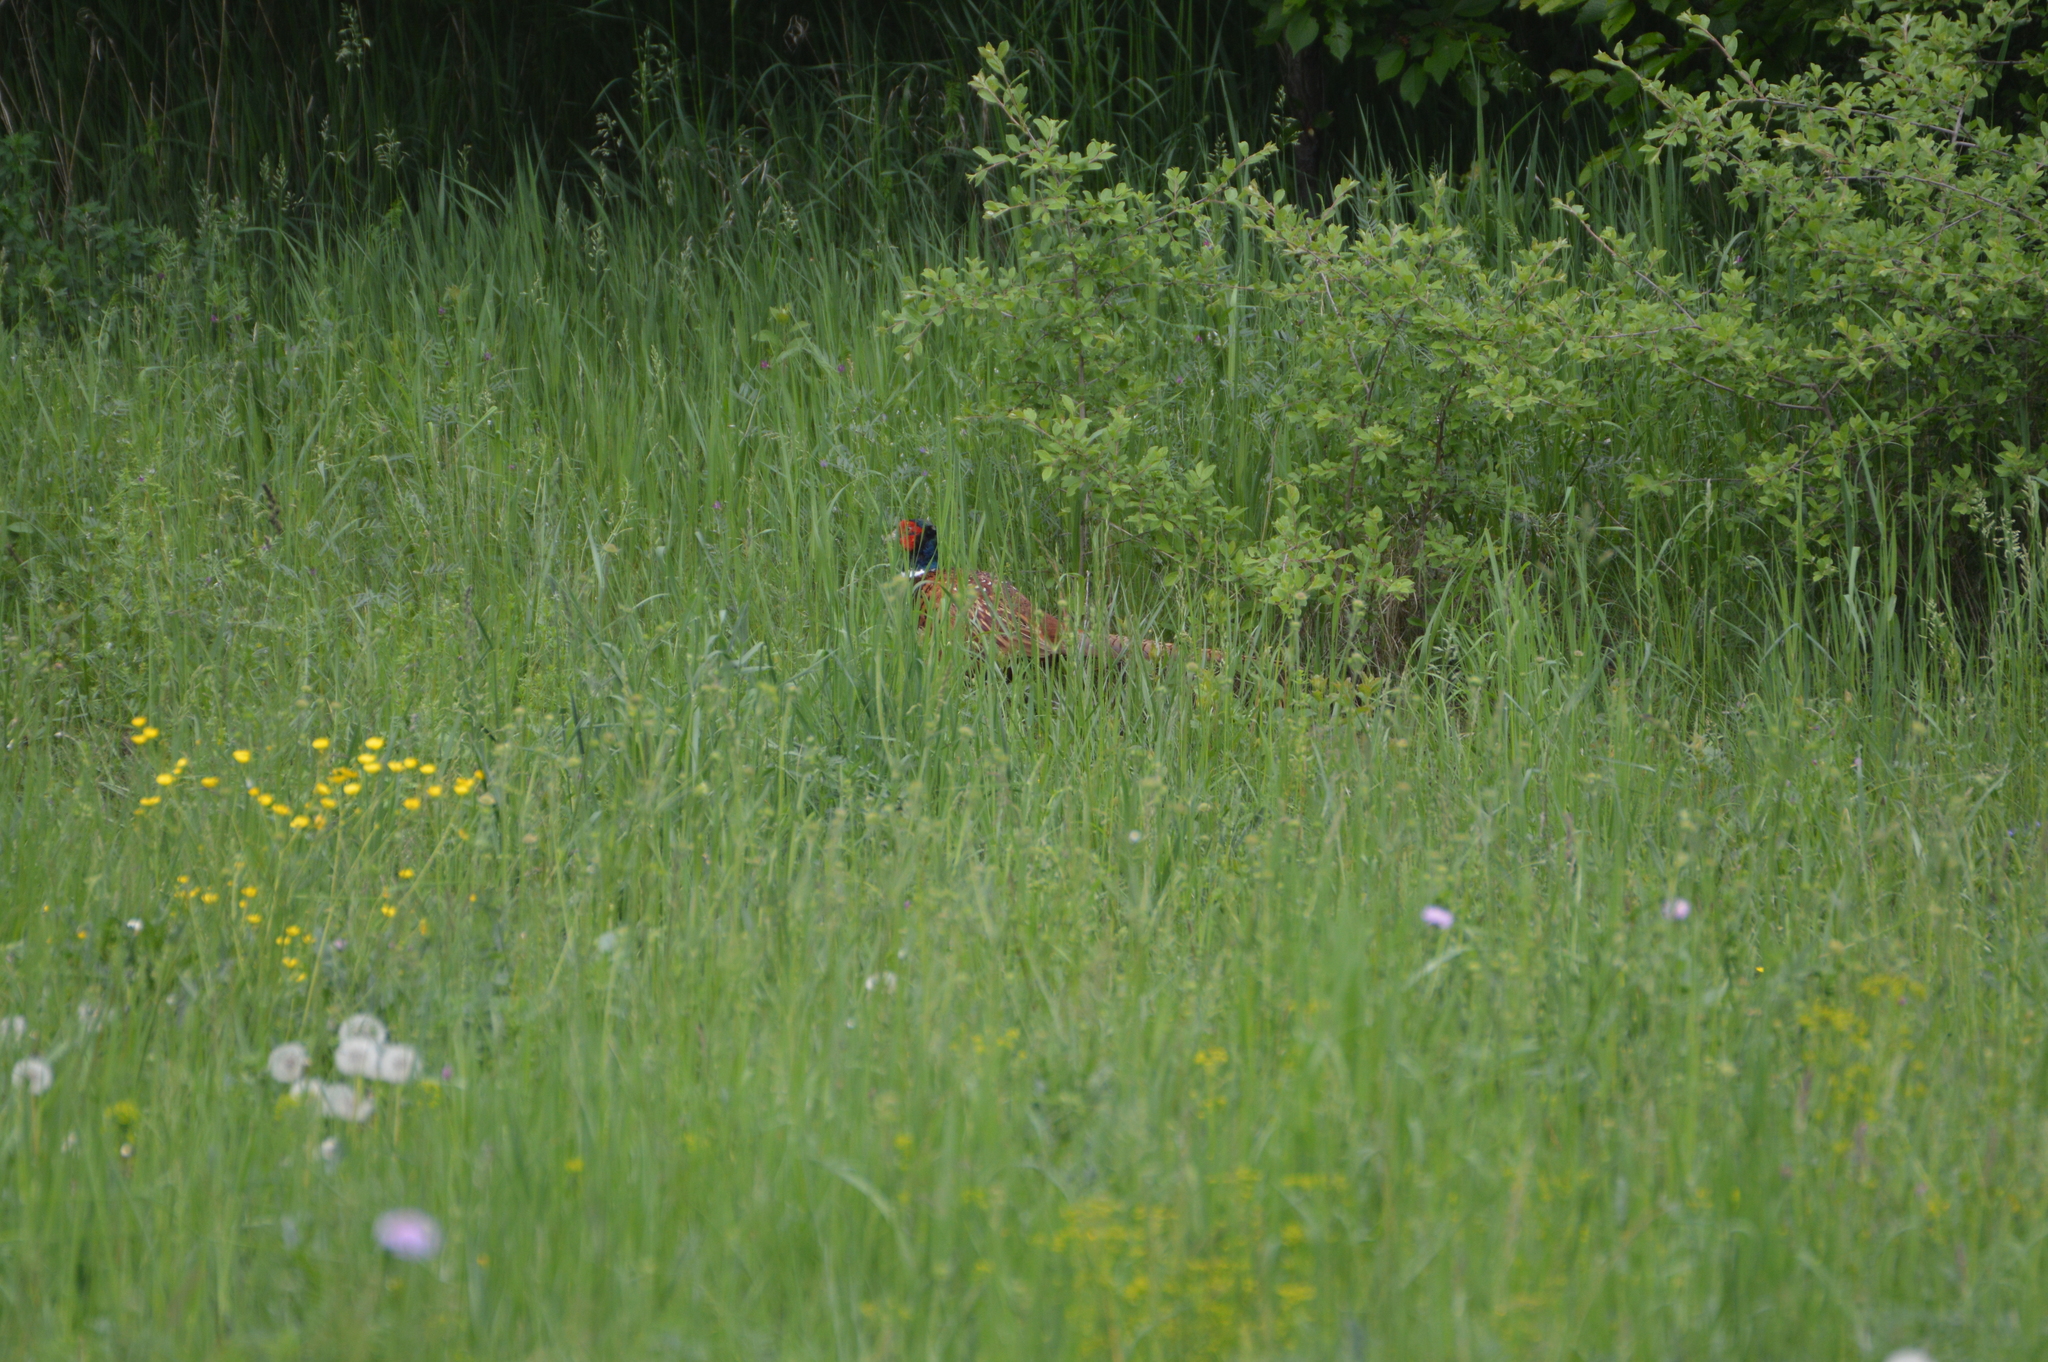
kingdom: Animalia
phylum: Chordata
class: Aves
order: Galliformes
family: Phasianidae
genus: Phasianus
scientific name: Phasianus colchicus
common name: Common pheasant
